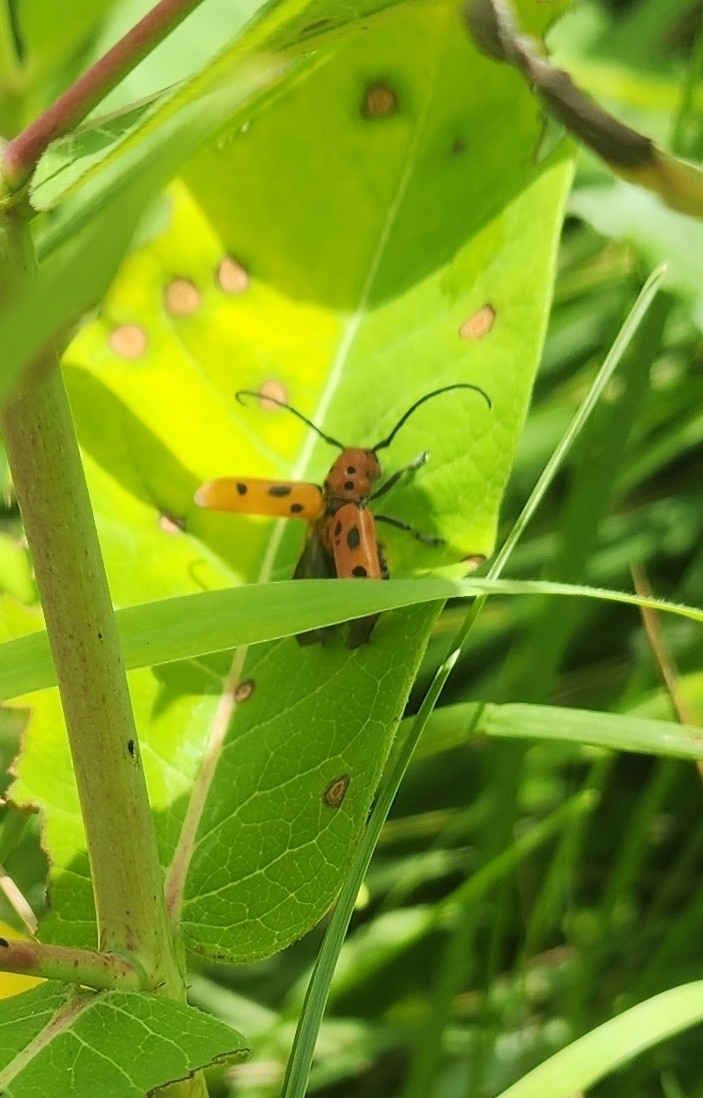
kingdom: Animalia
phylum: Arthropoda
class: Insecta
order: Coleoptera
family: Cerambycidae
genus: Tetraopes
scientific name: Tetraopes tetrophthalmus
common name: Red milkweed beetle
